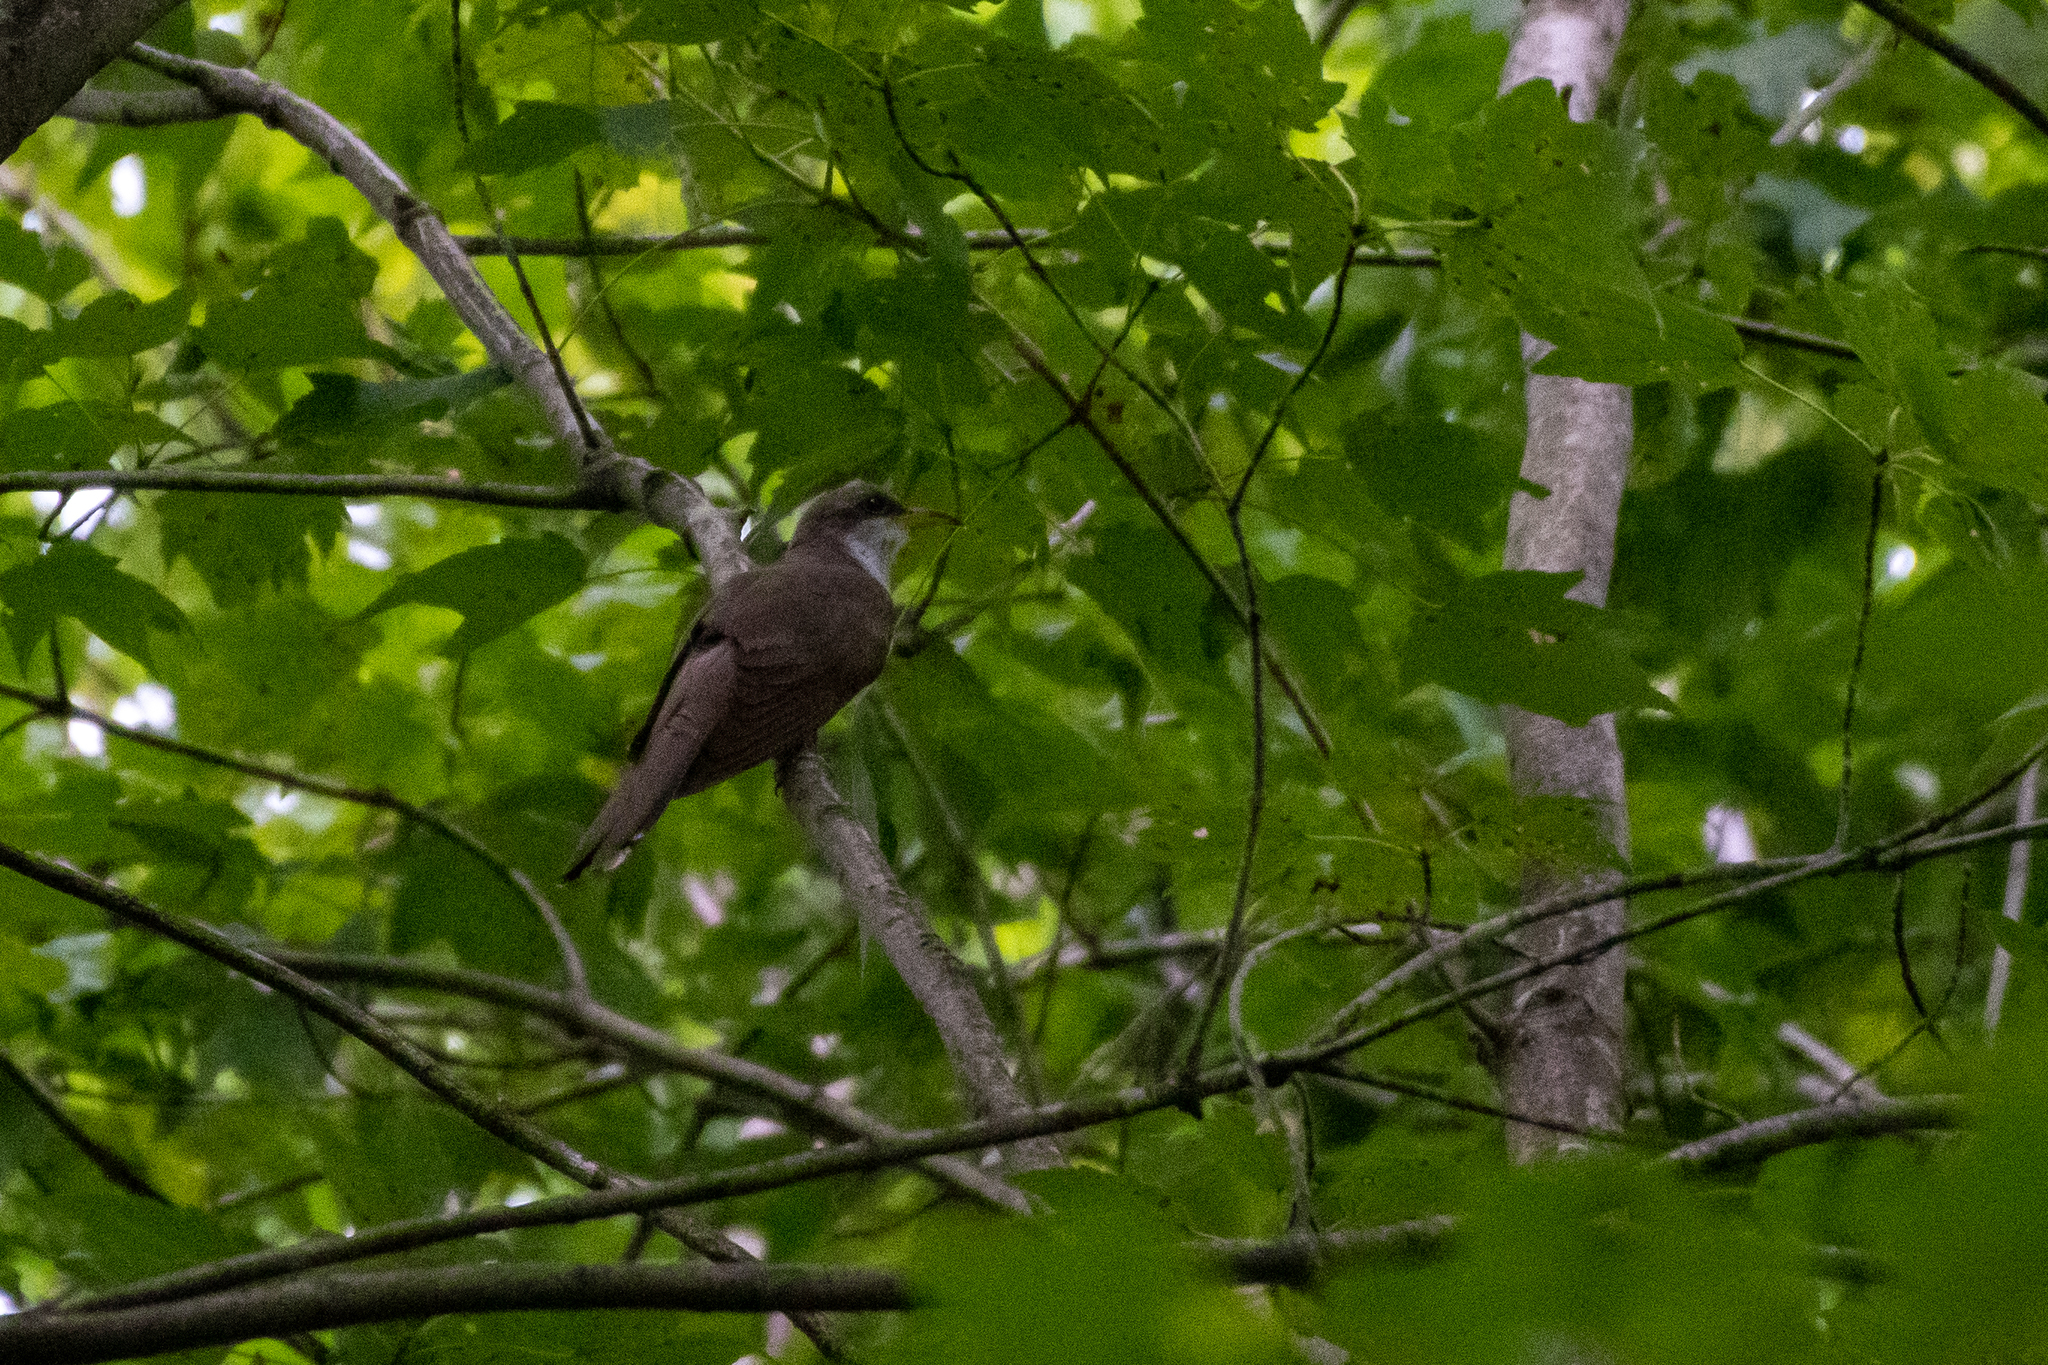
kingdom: Animalia
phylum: Chordata
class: Aves
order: Cuculiformes
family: Cuculidae
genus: Coccyzus
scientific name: Coccyzus americanus
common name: Yellow-billed cuckoo
